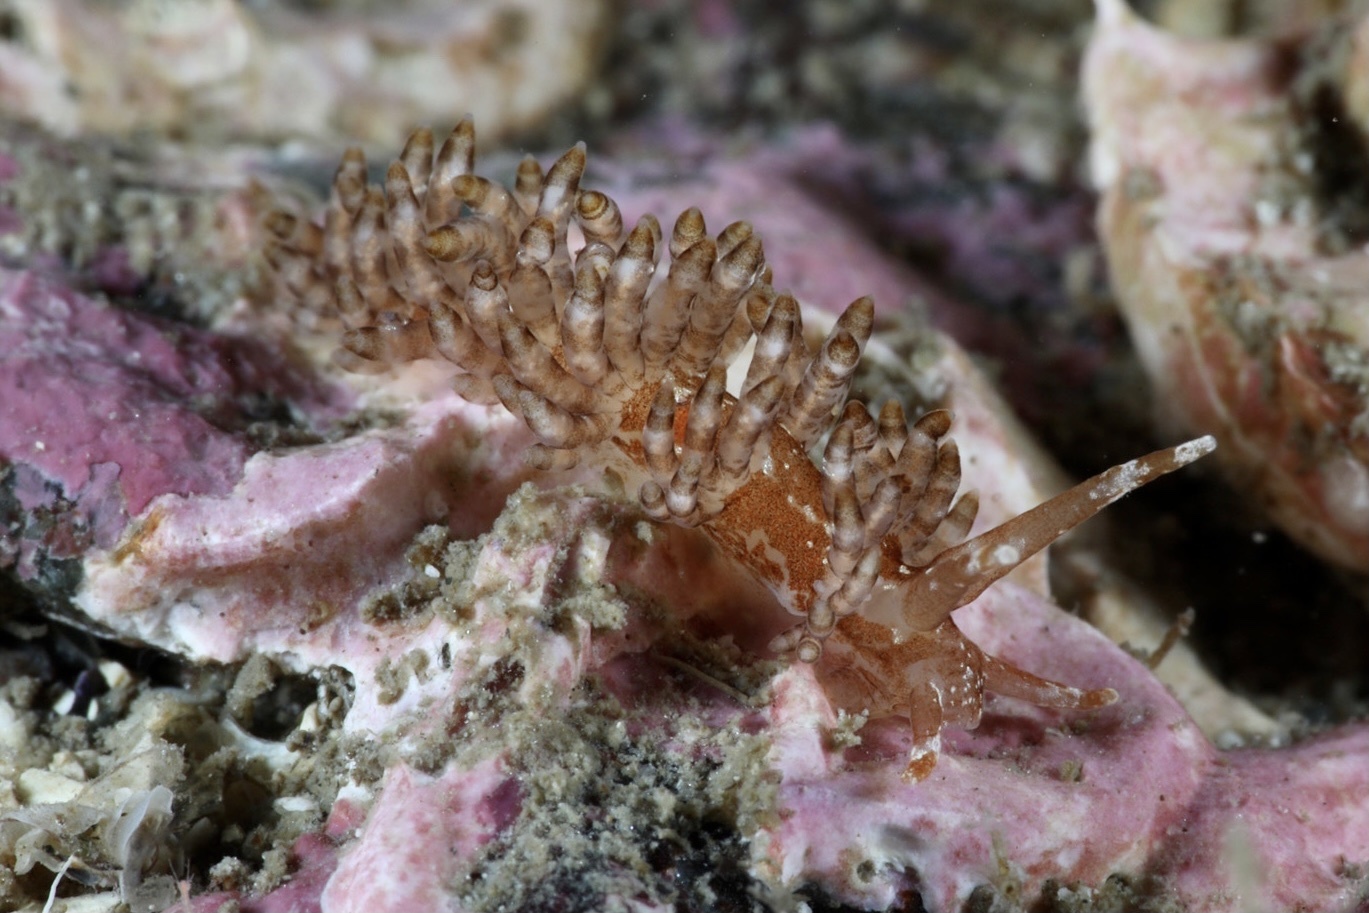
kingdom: Animalia
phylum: Mollusca
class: Gastropoda
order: Nudibranchia
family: Eubranchidae
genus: Eubranchus
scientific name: Eubranchus vittatus
